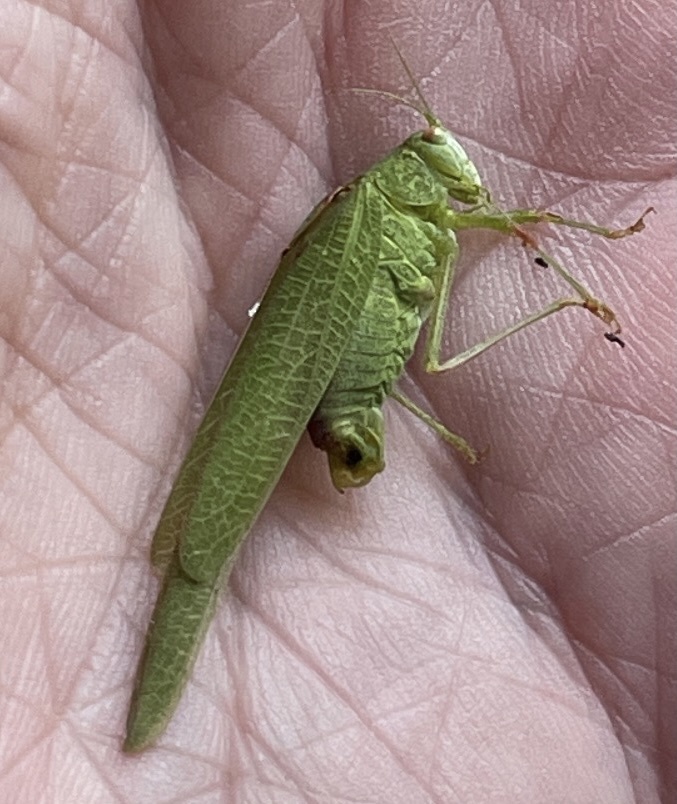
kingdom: Animalia
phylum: Arthropoda
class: Insecta
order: Orthoptera
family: Tettigoniidae
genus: Phaneroptera
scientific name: Phaneroptera nana
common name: Southern sickle bush-cricket
